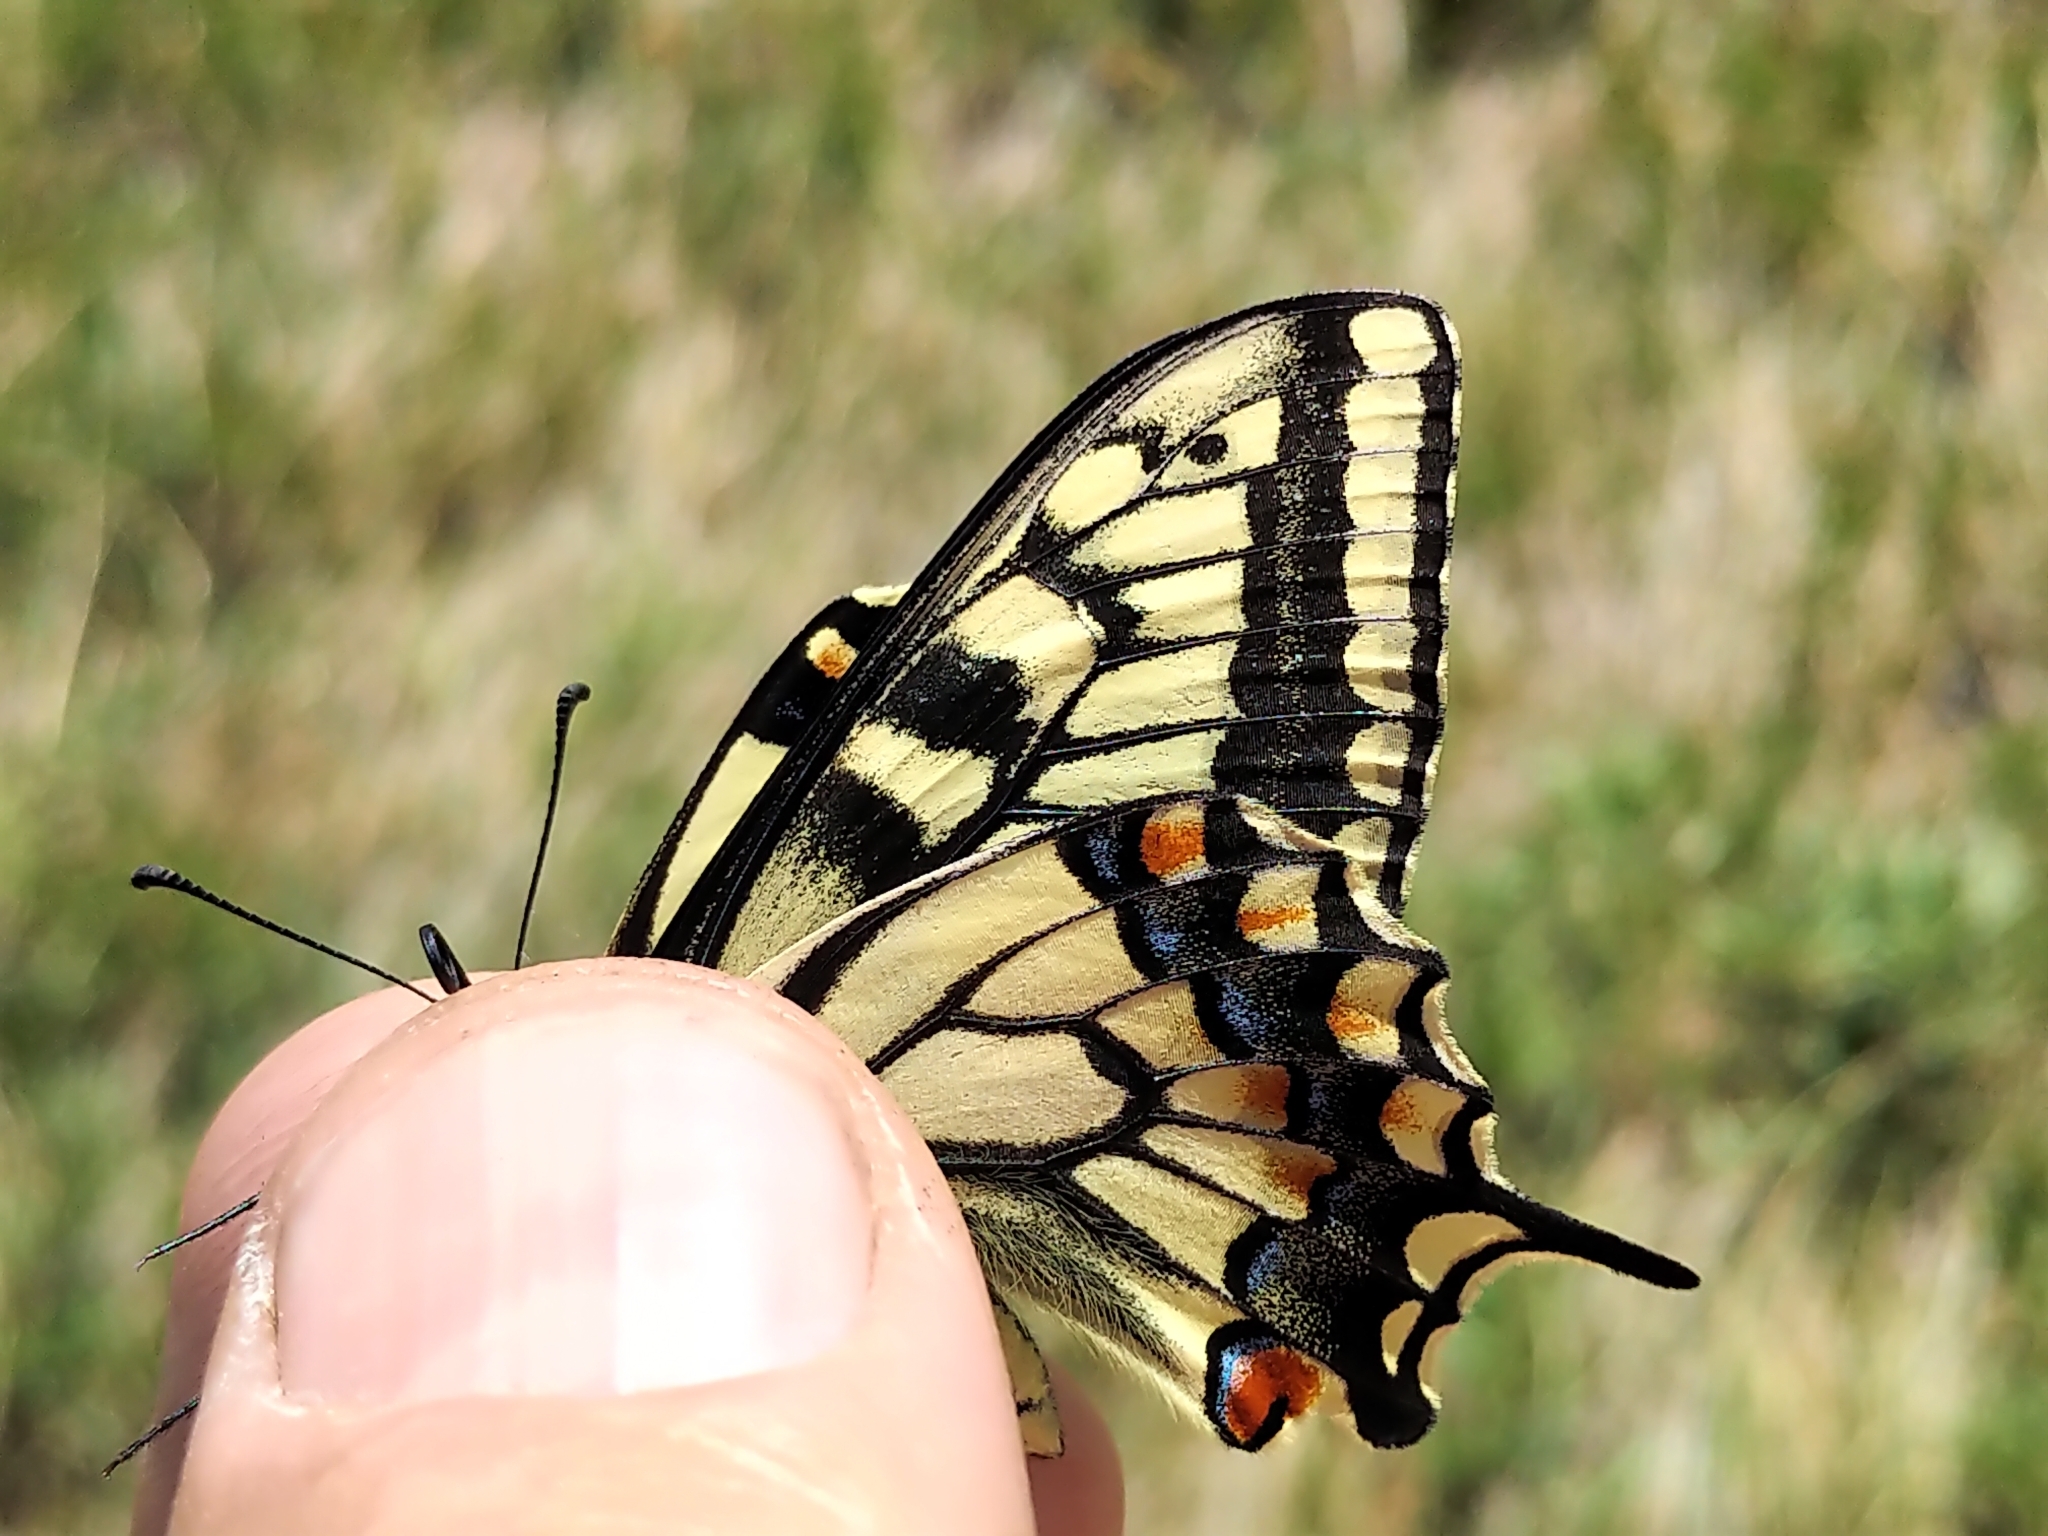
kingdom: Animalia
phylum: Arthropoda
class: Insecta
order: Lepidoptera
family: Papilionidae
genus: Papilio
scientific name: Papilio machaon
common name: Swallowtail
